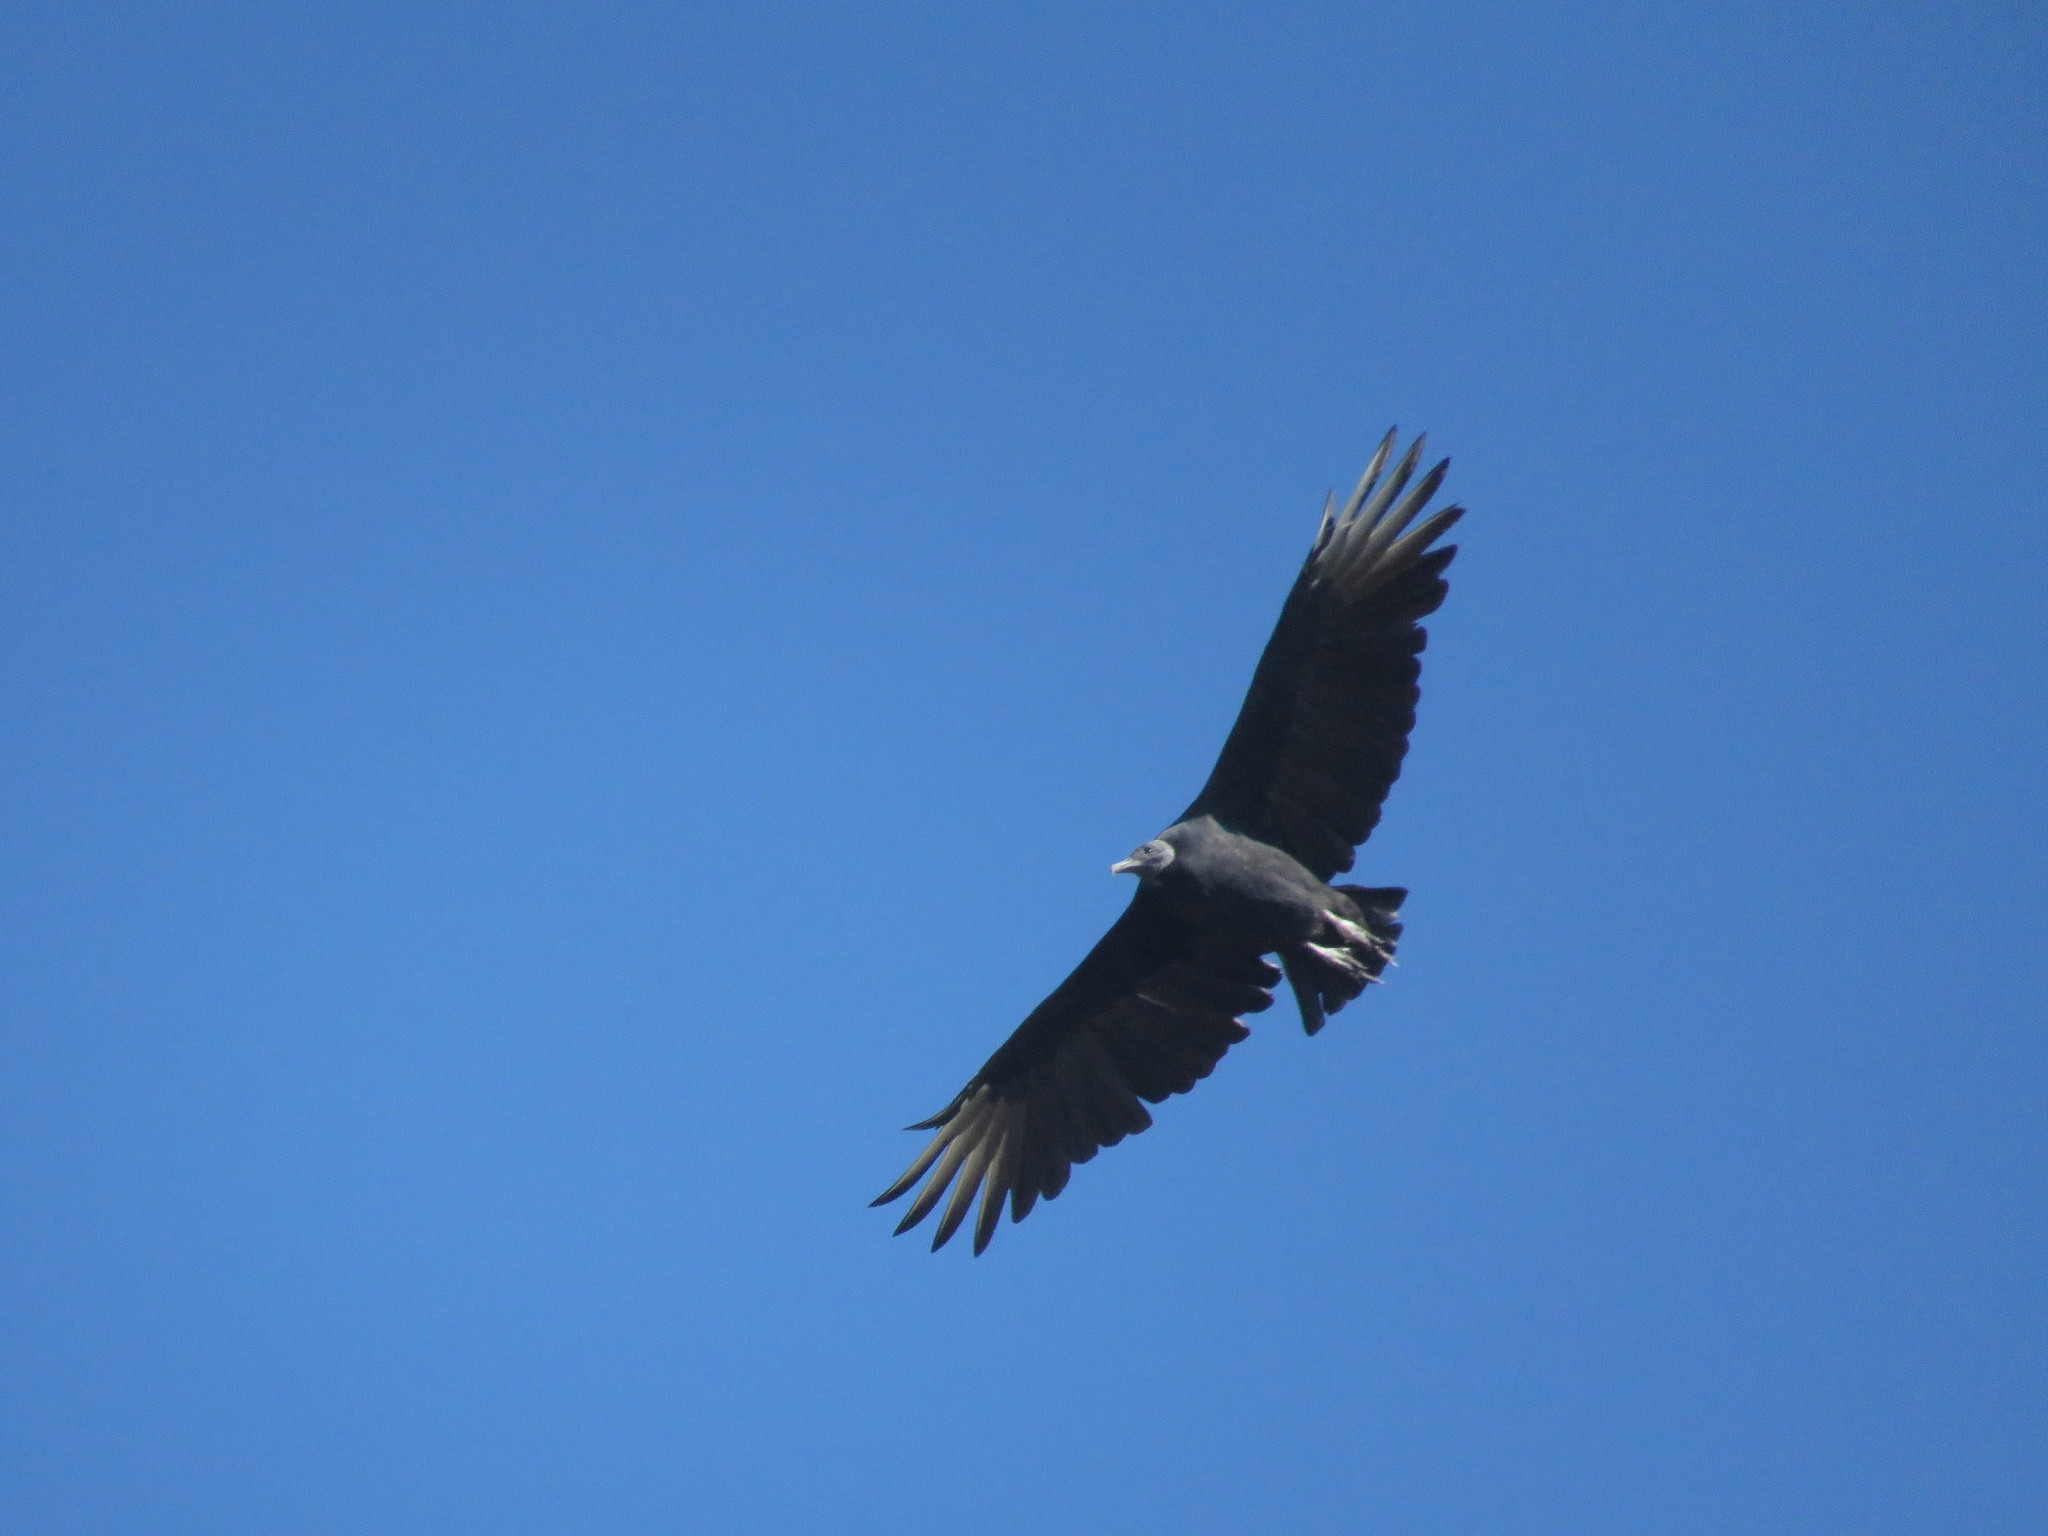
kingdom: Animalia
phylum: Chordata
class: Aves
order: Accipitriformes
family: Cathartidae
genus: Coragyps
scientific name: Coragyps atratus
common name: Black vulture
